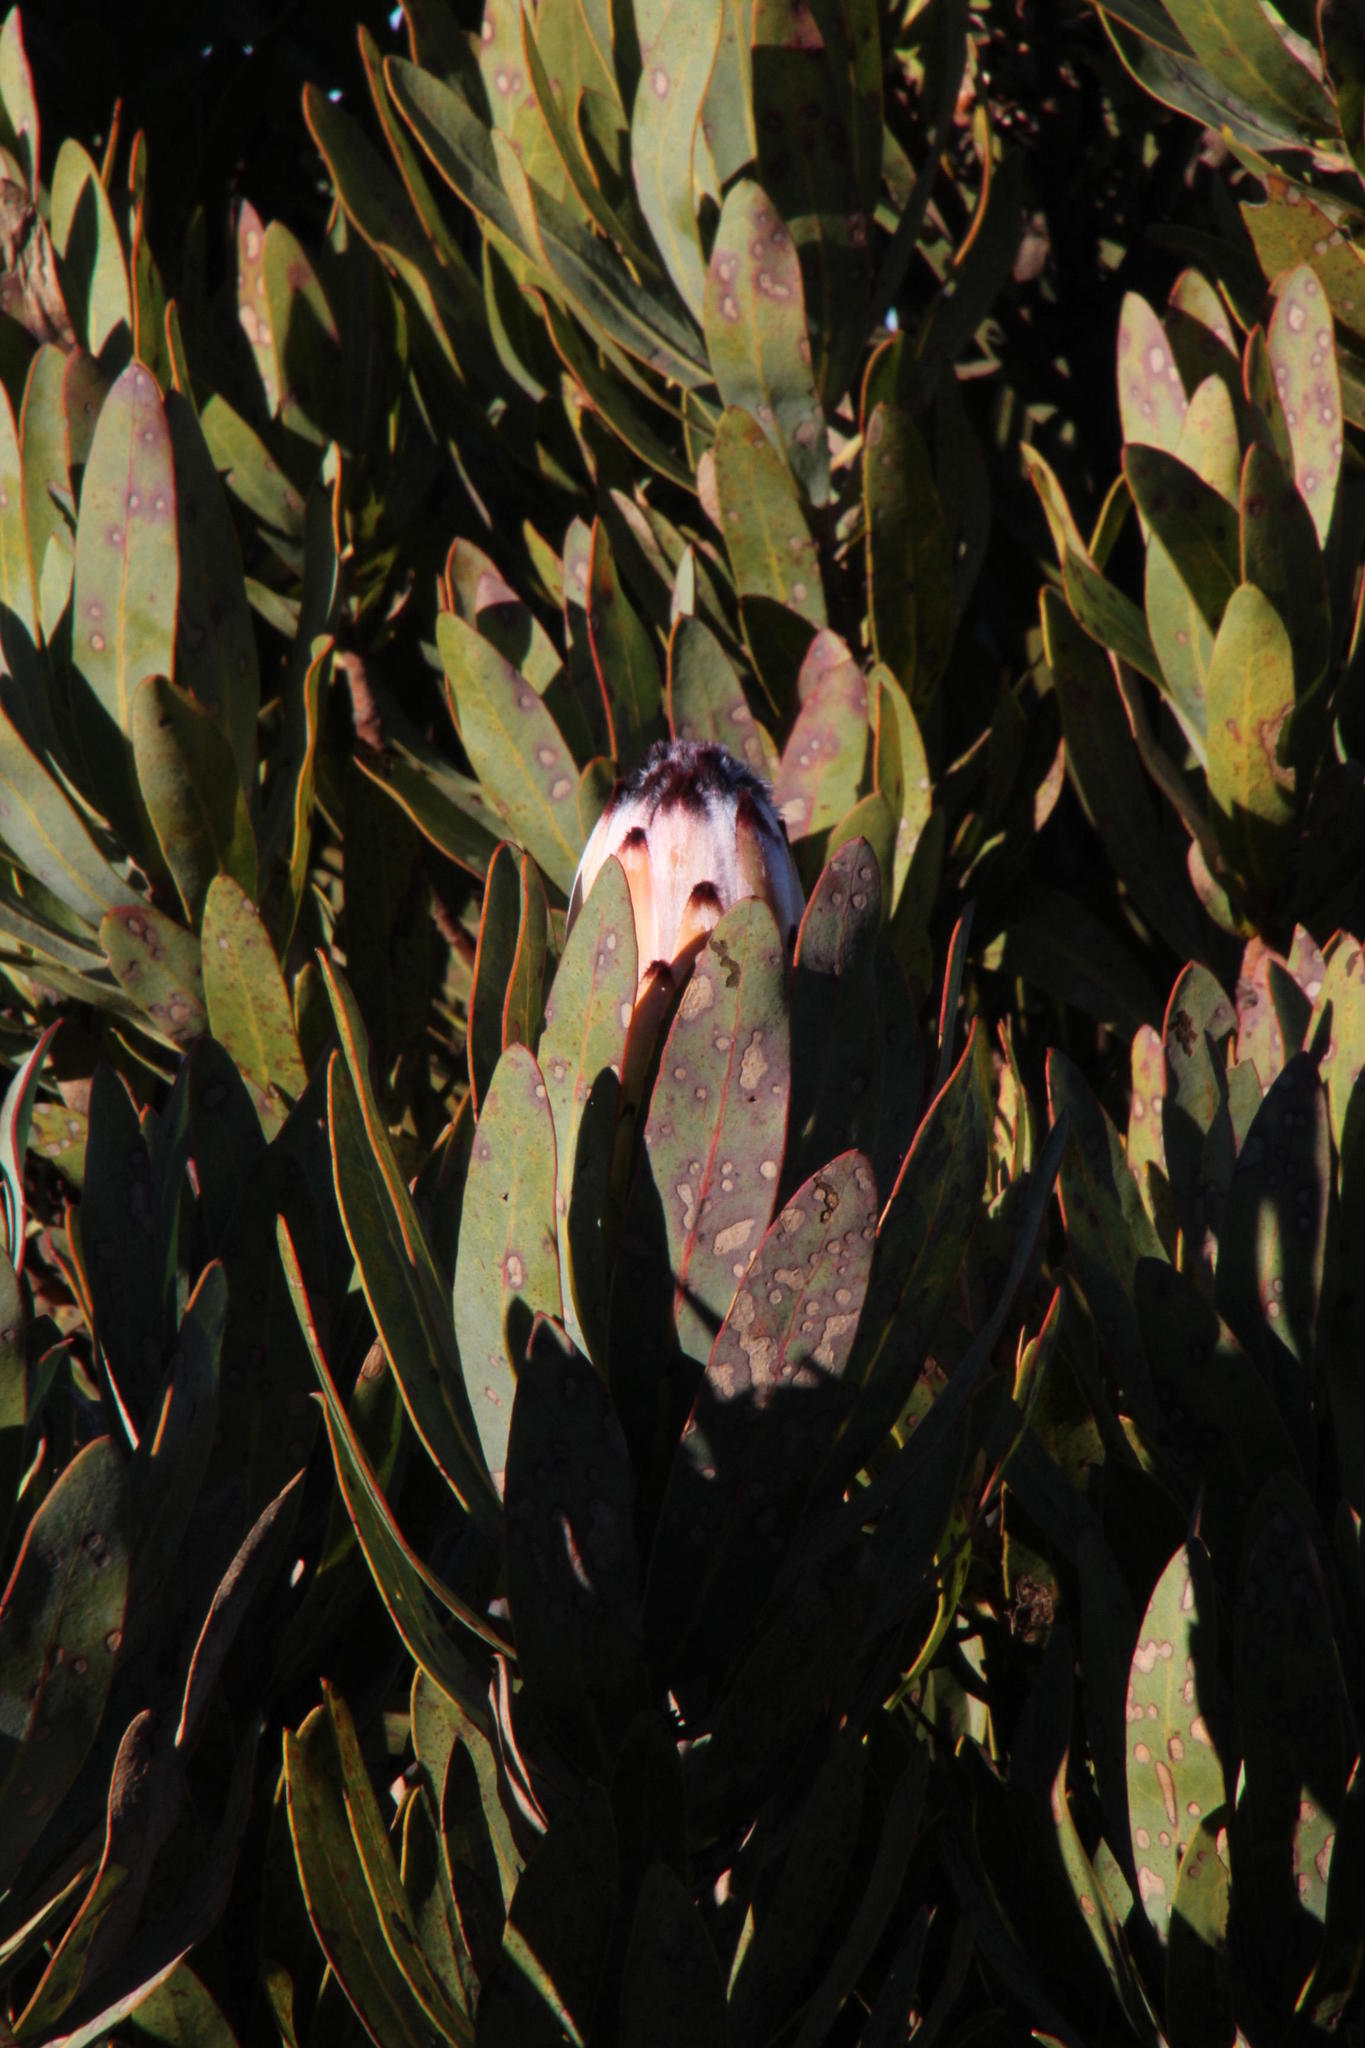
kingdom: Plantae
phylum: Tracheophyta
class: Magnoliopsida
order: Proteales
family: Proteaceae
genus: Protea
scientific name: Protea laurifolia
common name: Grey-leaf sugarbsh
